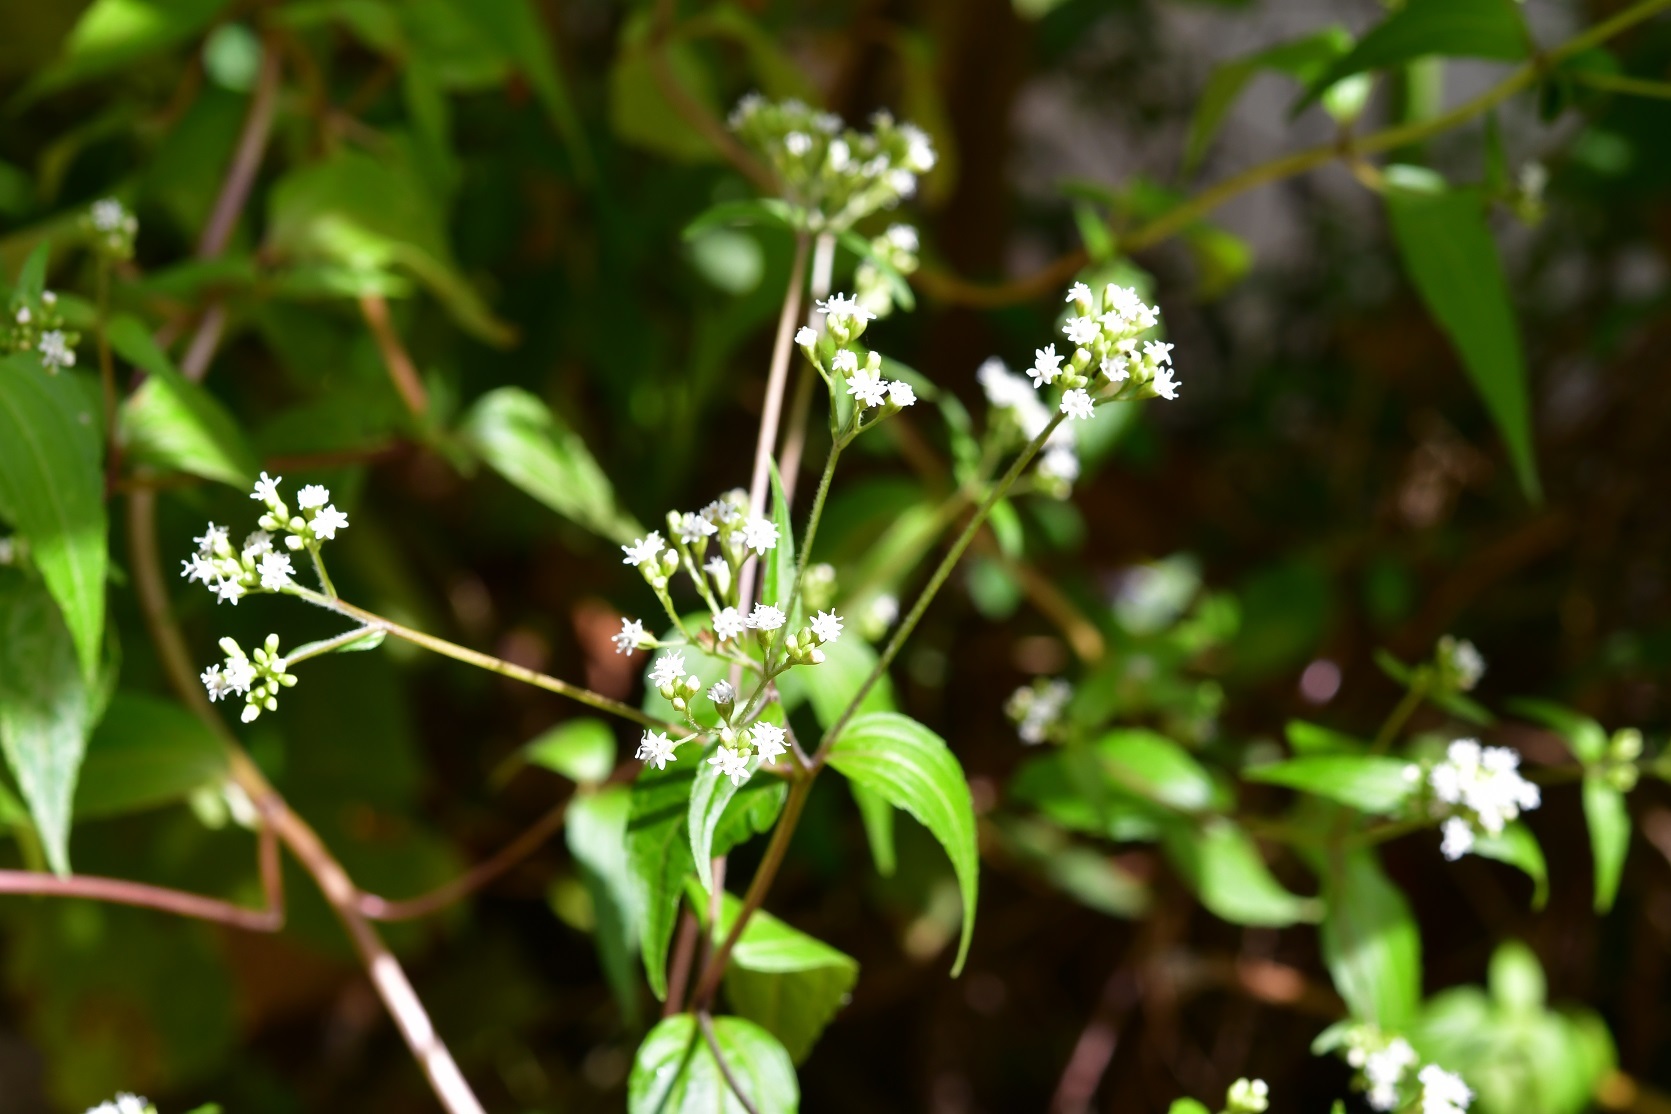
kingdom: Plantae
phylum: Tracheophyta
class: Magnoliopsida
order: Asterales
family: Asteraceae
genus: Piqueria
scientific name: Piqueria trinervia
